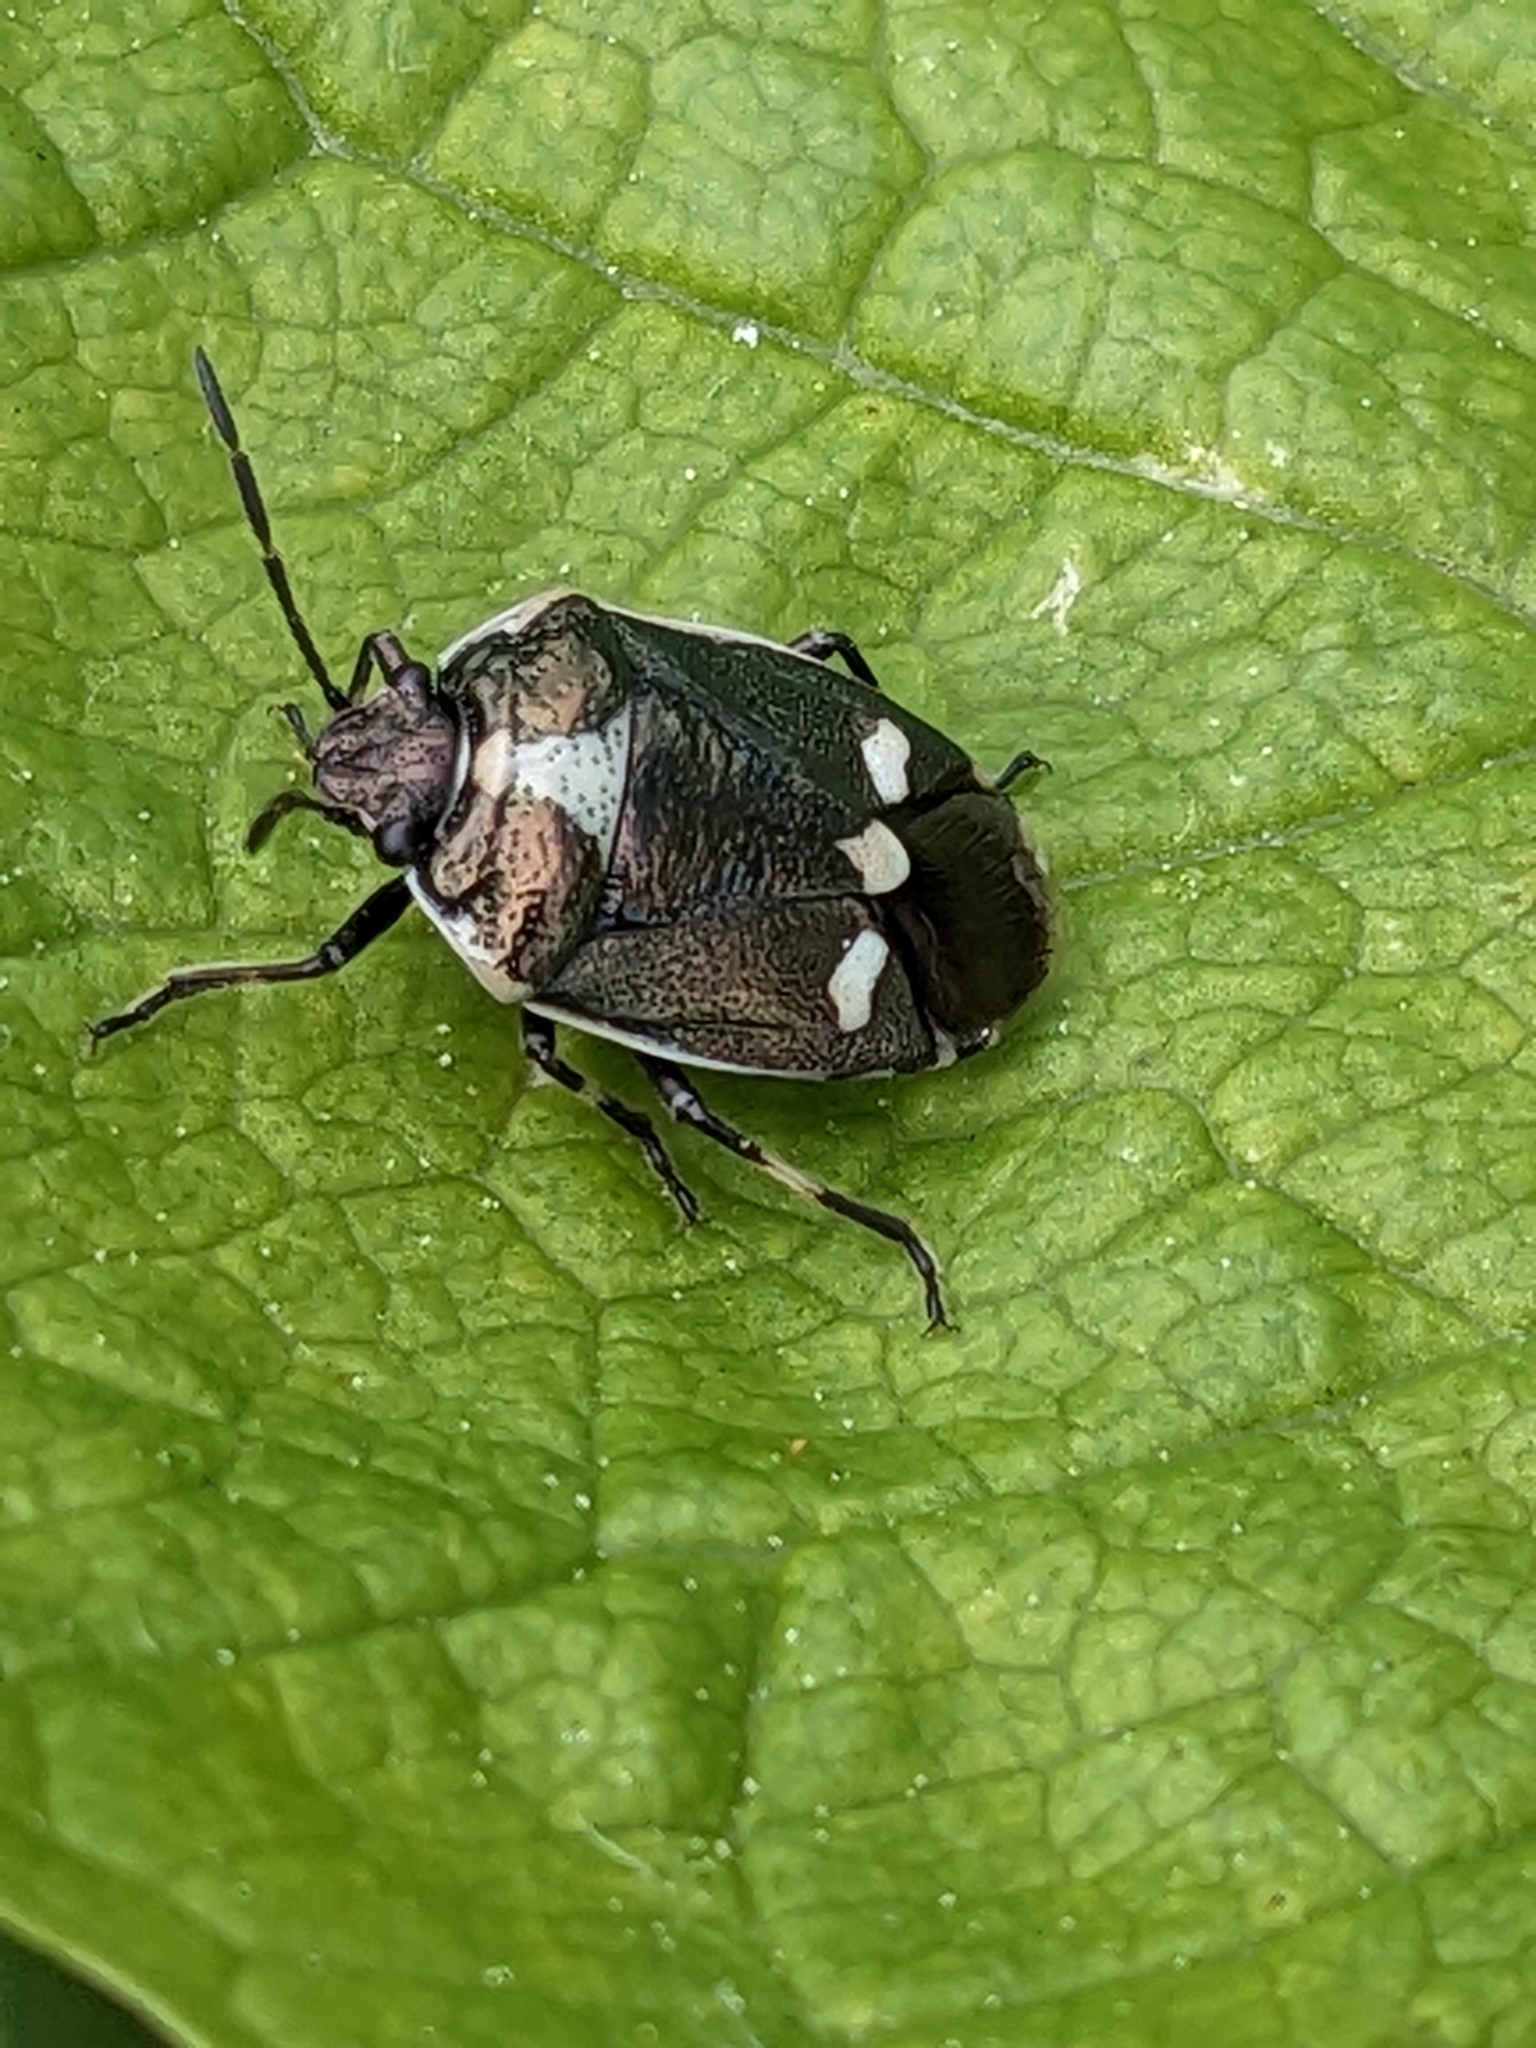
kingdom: Animalia
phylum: Arthropoda
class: Insecta
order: Hemiptera
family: Pentatomidae
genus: Eurydema
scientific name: Eurydema oleracea
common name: Cabbage bug
